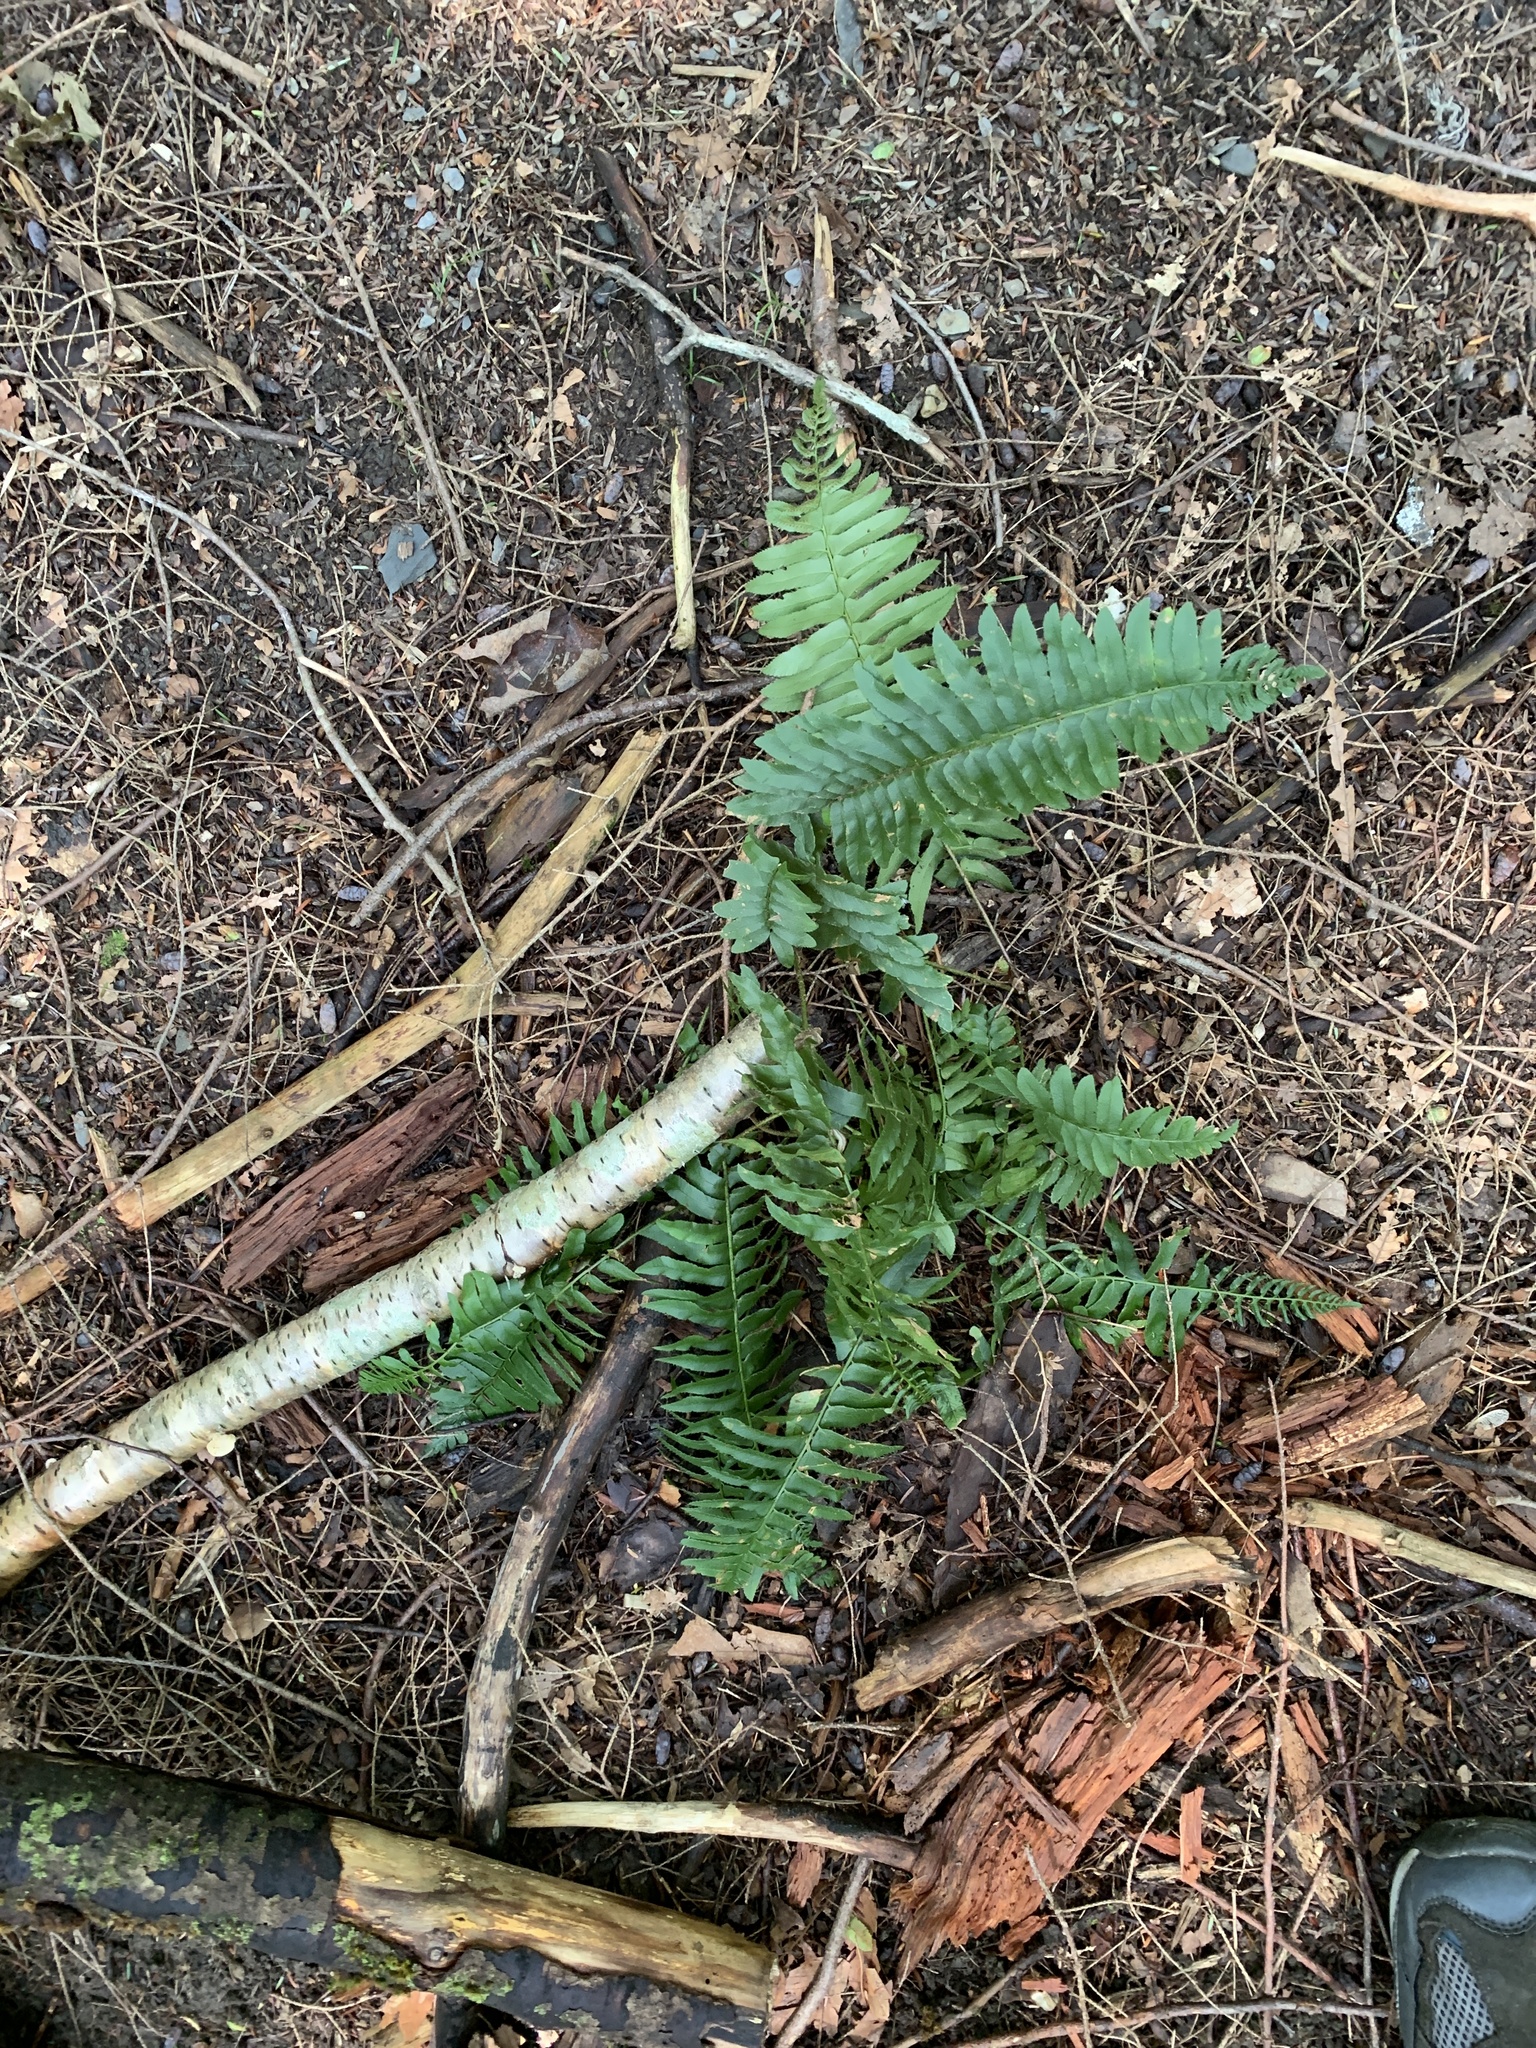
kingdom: Plantae
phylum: Tracheophyta
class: Polypodiopsida
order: Polypodiales
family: Dryopteridaceae
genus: Polystichum
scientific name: Polystichum acrostichoides
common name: Christmas fern
